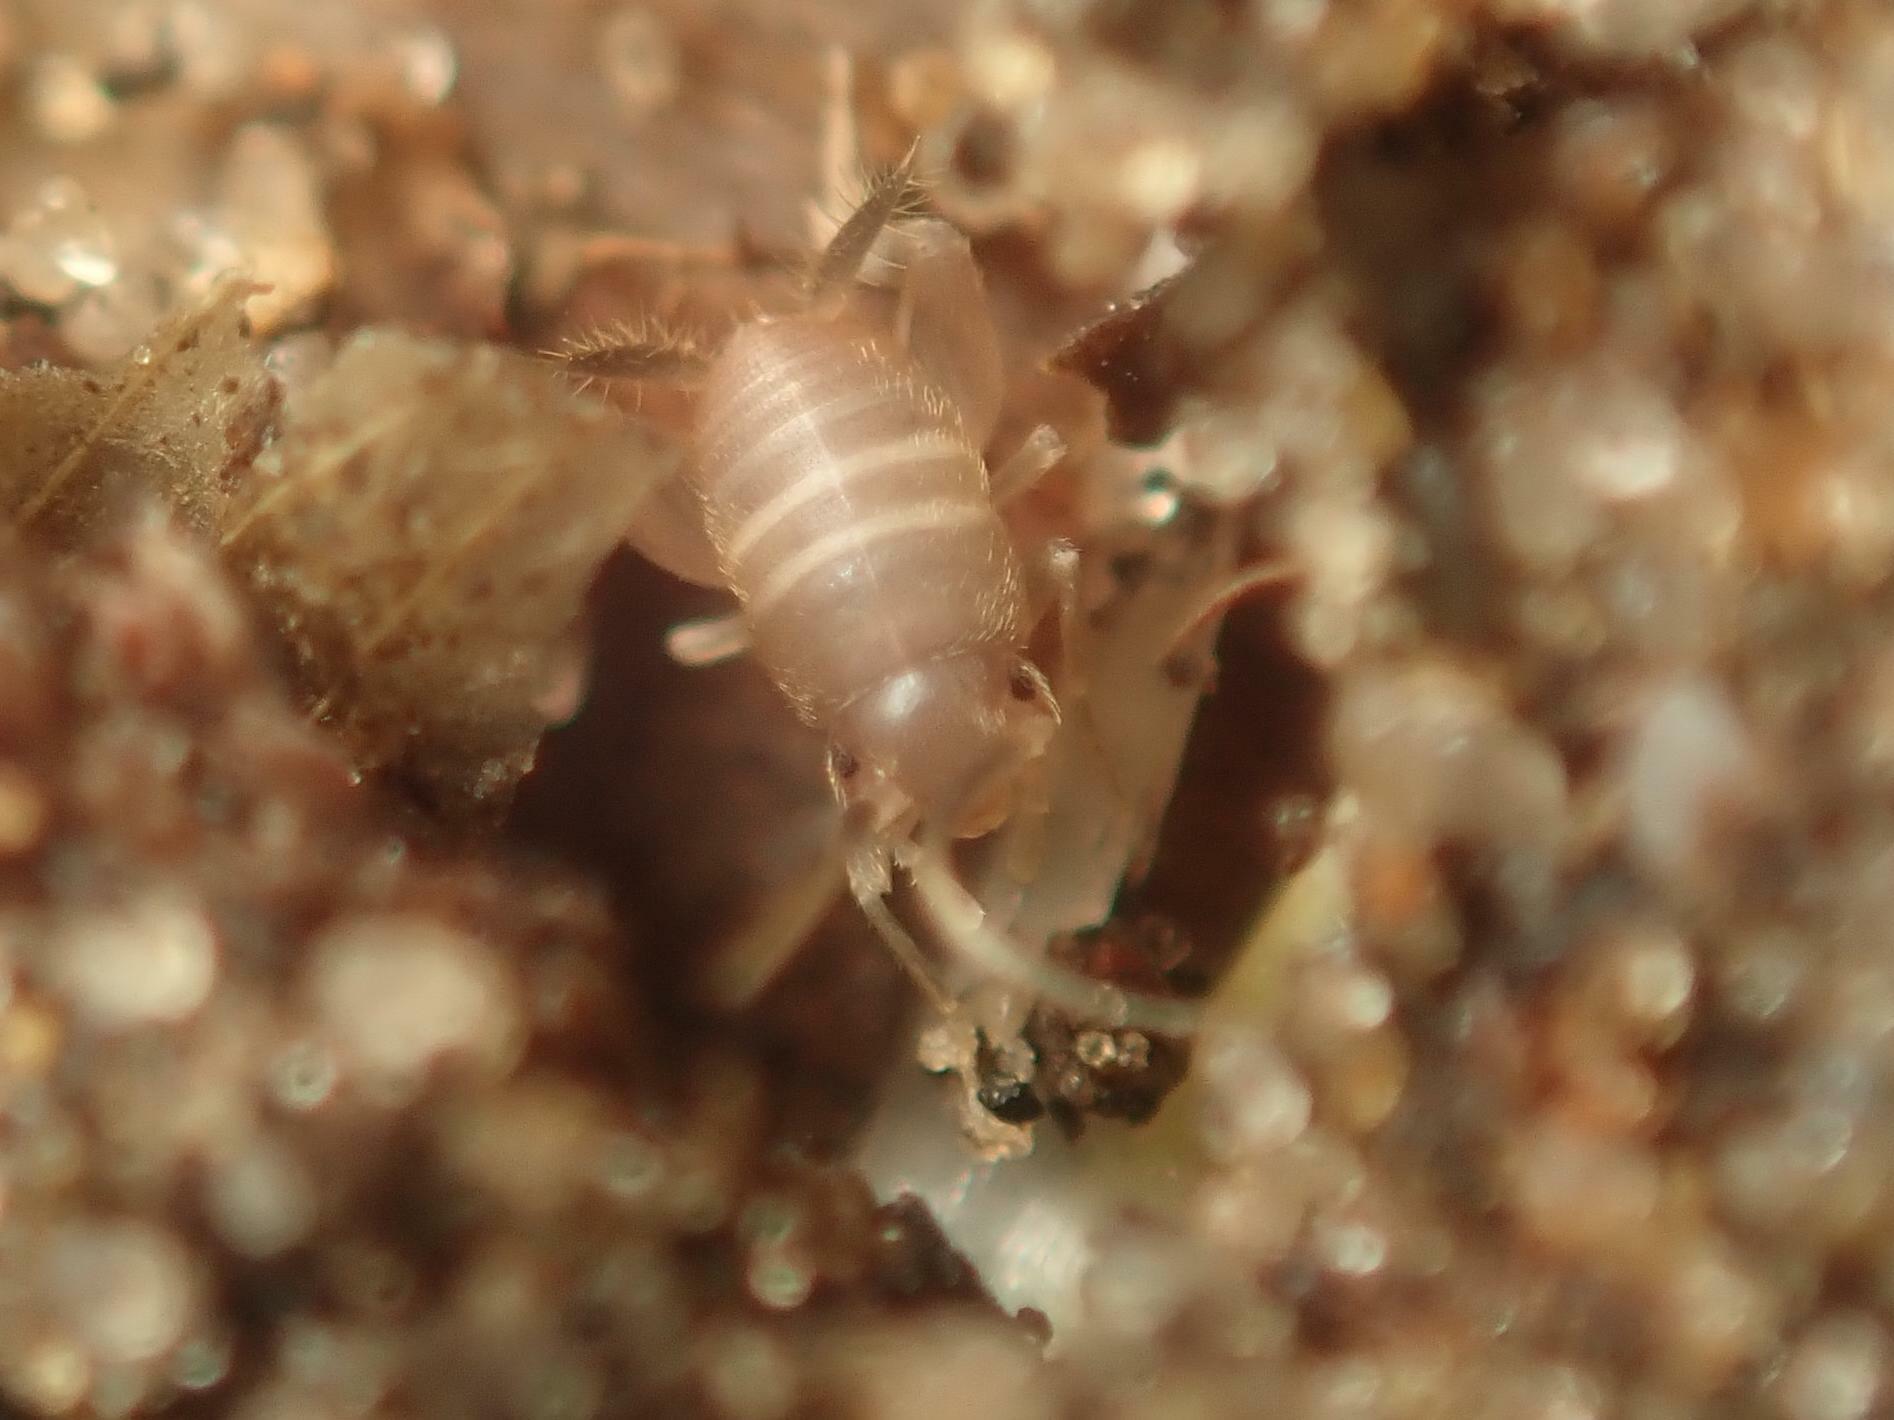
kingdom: Animalia
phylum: Arthropoda
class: Insecta
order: Orthoptera
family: Myrmecophilidae
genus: Myrmecophilus
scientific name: Myrmecophilus acervorum
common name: Ants-nest cricket
